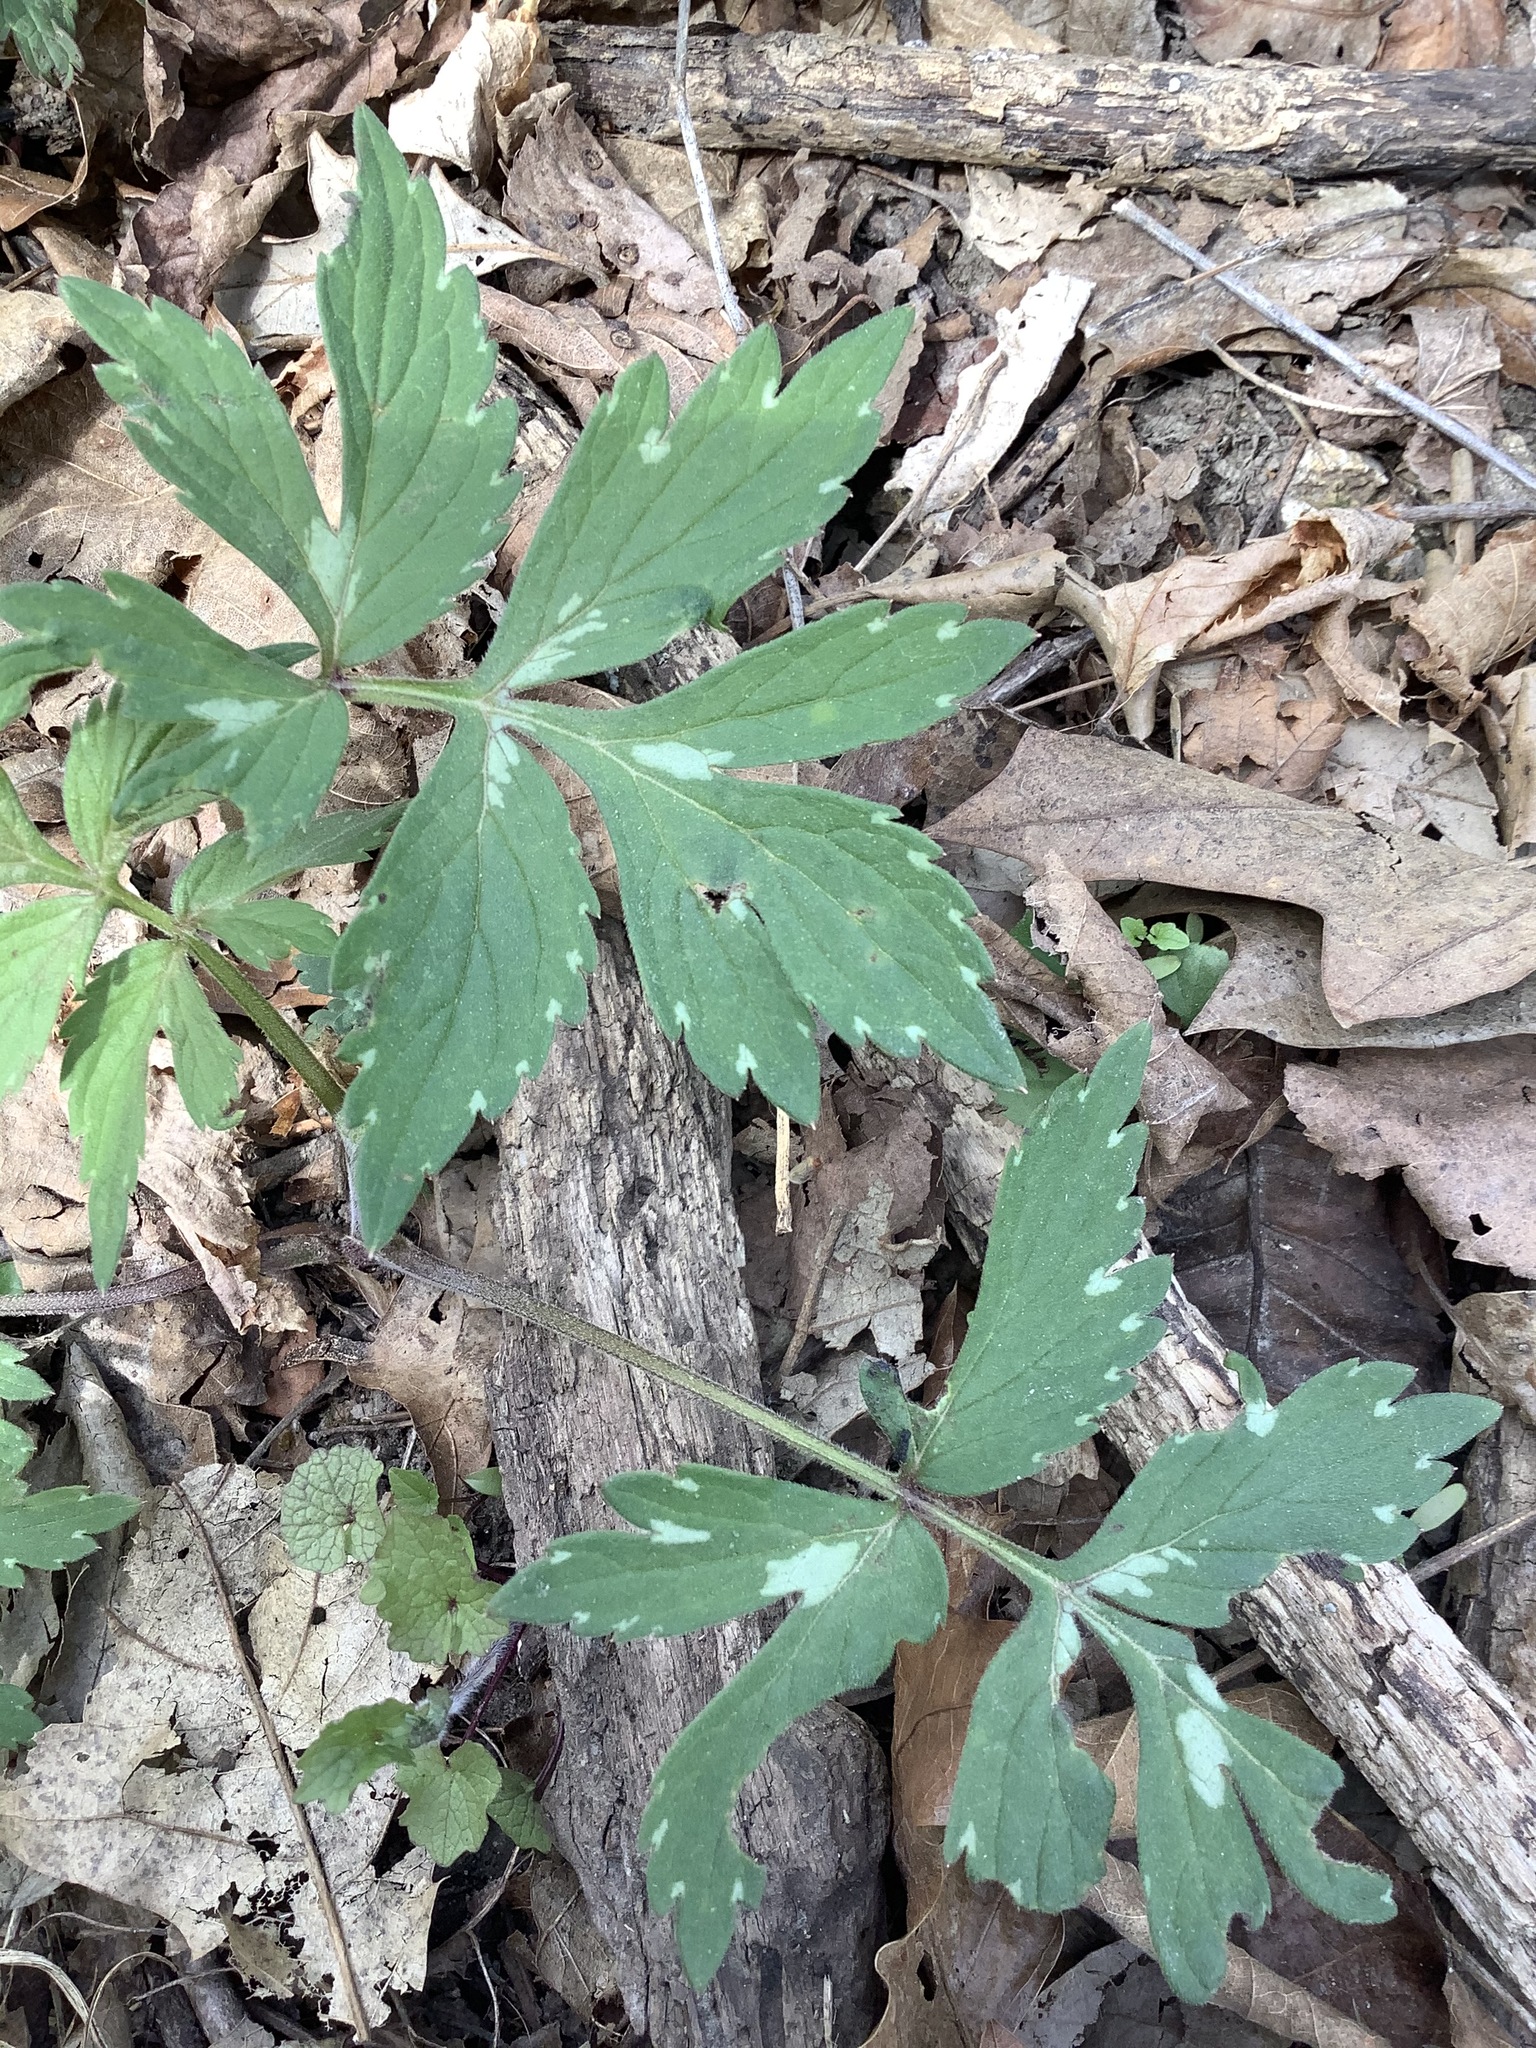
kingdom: Plantae
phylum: Tracheophyta
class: Magnoliopsida
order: Boraginales
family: Hydrophyllaceae
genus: Hydrophyllum
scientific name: Hydrophyllum virginianum
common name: Virginia waterleaf
